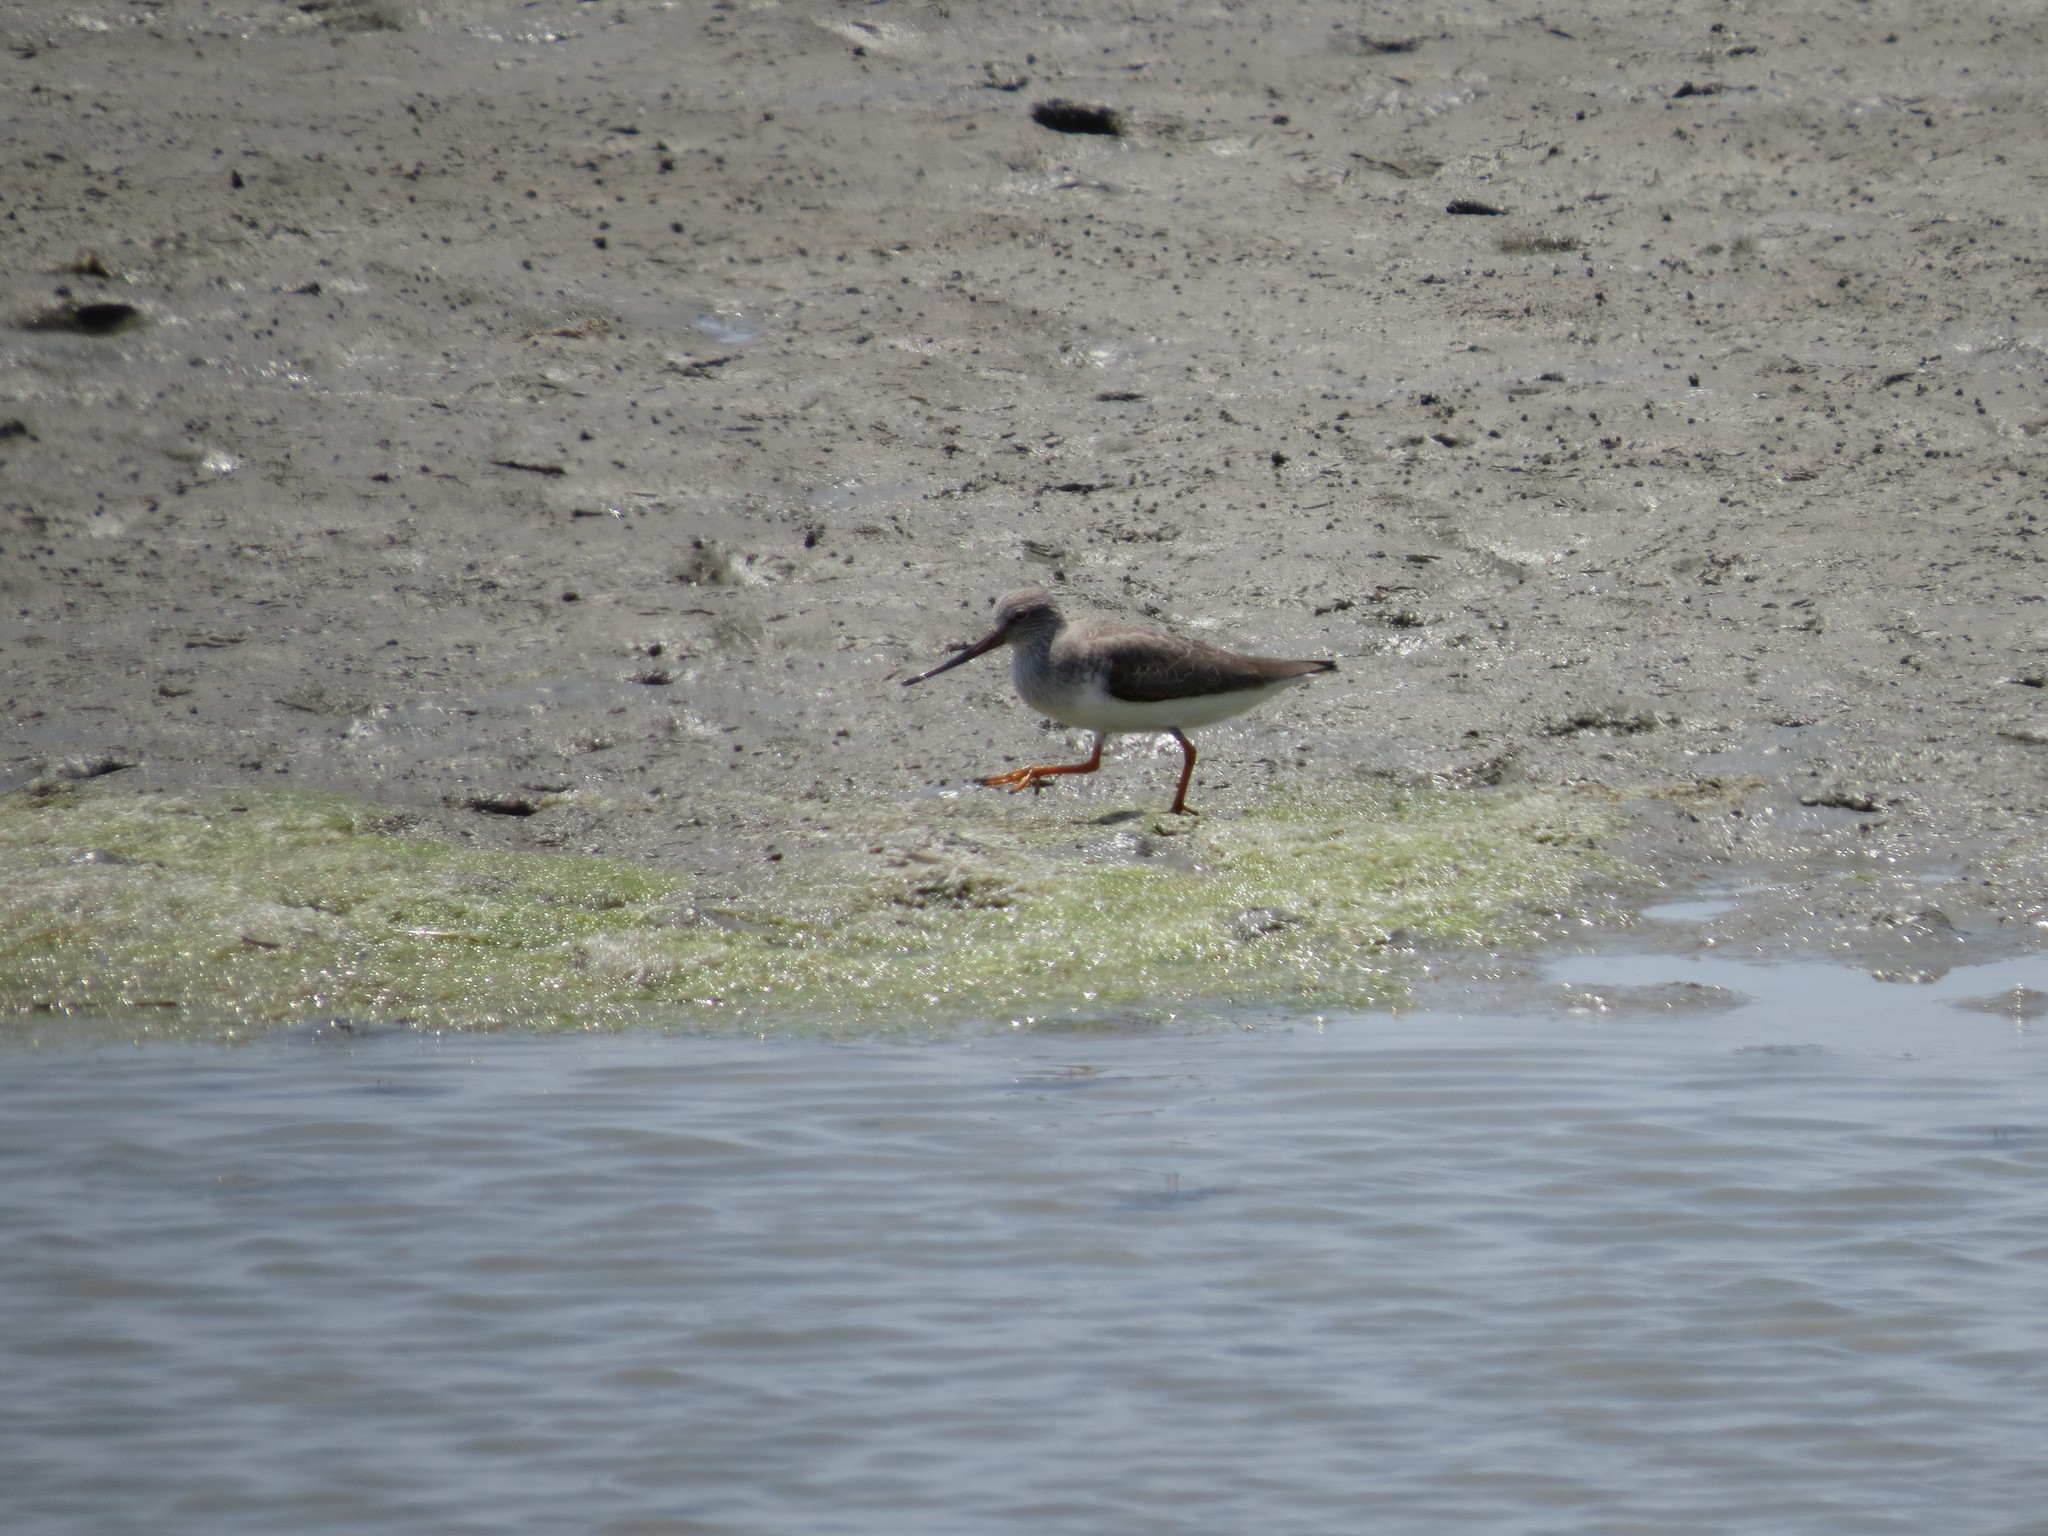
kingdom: Animalia
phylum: Chordata
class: Aves
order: Charadriiformes
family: Scolopacidae
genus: Xenus
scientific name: Xenus cinereus
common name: Terek sandpiper
